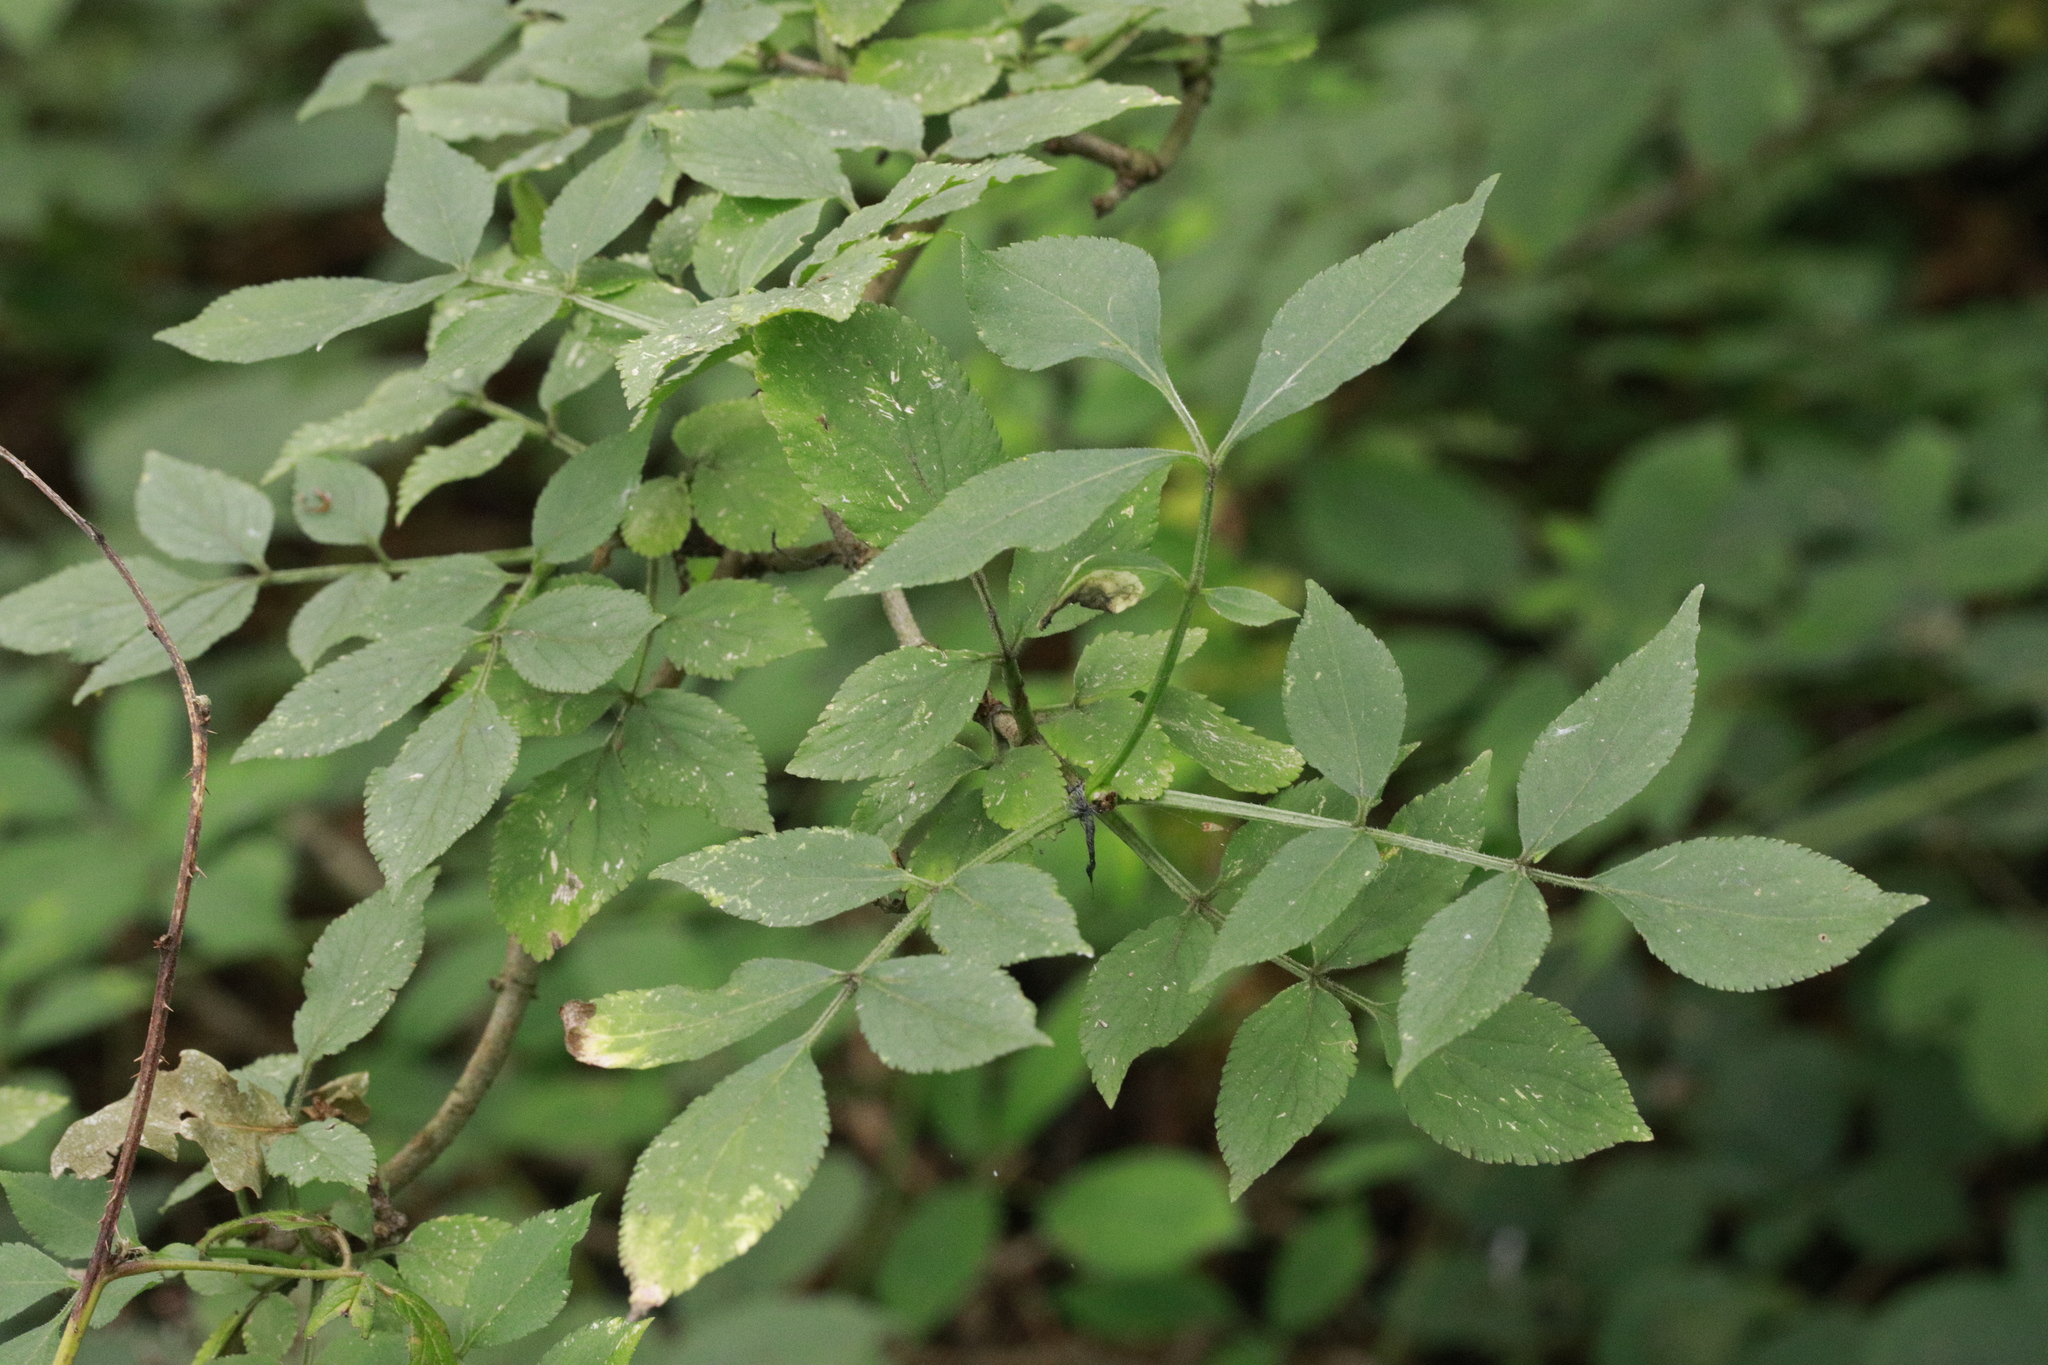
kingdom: Plantae
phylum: Tracheophyta
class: Magnoliopsida
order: Dipsacales
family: Viburnaceae
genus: Sambucus
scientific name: Sambucus nigra
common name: Elder
